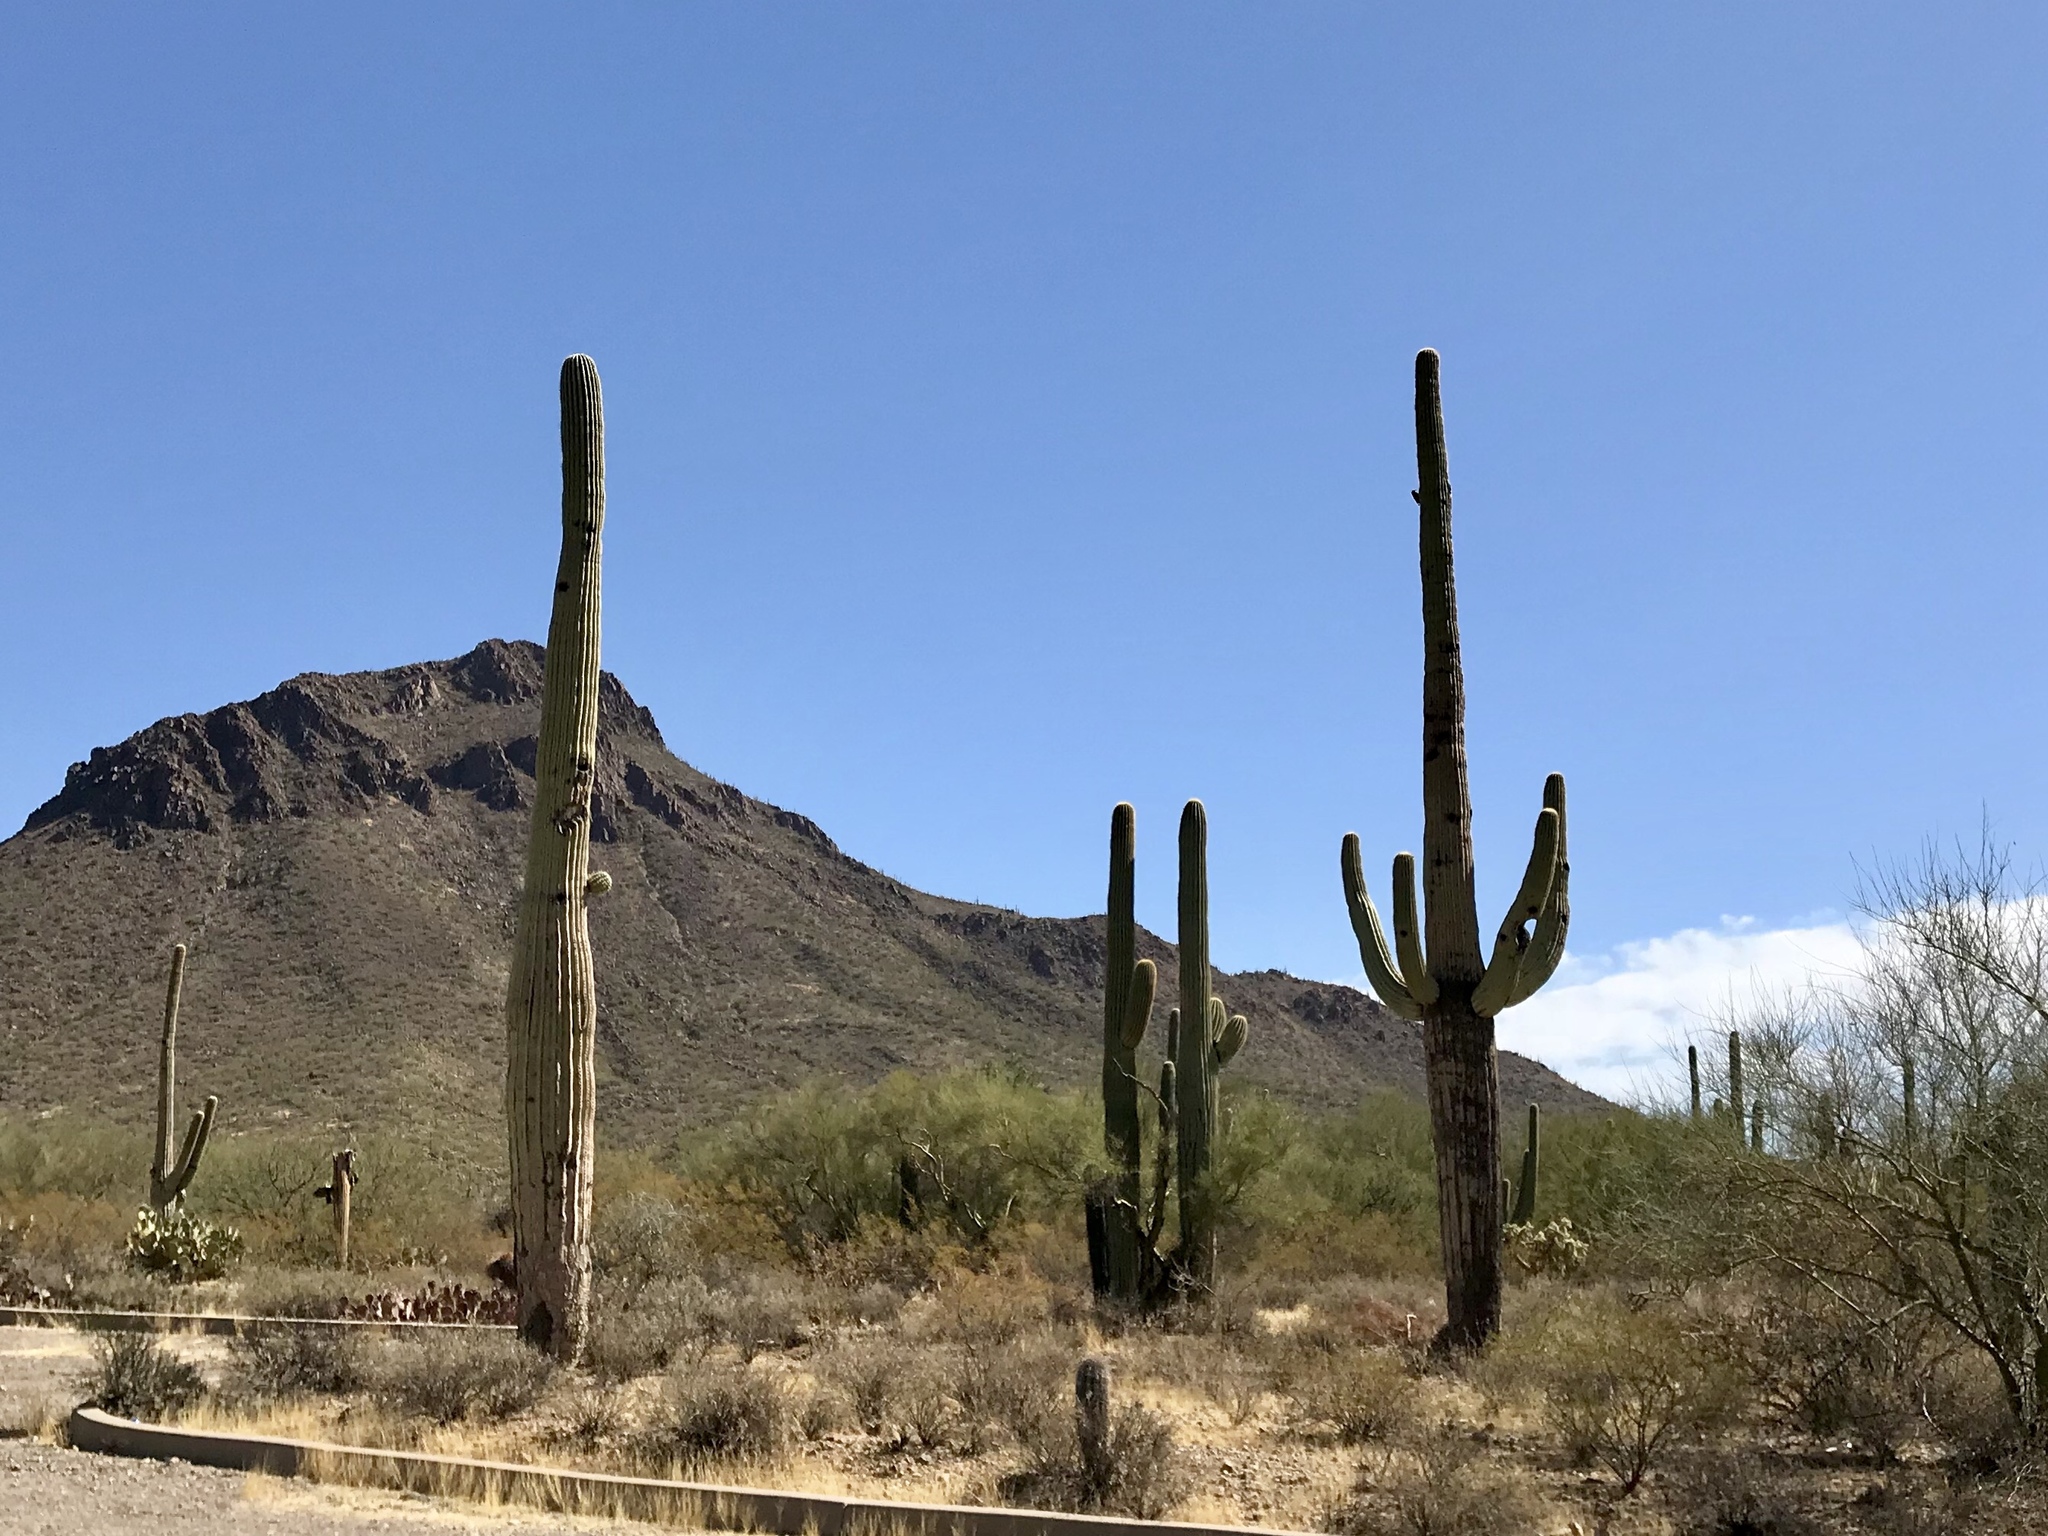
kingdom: Plantae
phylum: Tracheophyta
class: Magnoliopsida
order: Caryophyllales
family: Cactaceae
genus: Carnegiea
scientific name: Carnegiea gigantea
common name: Saguaro
